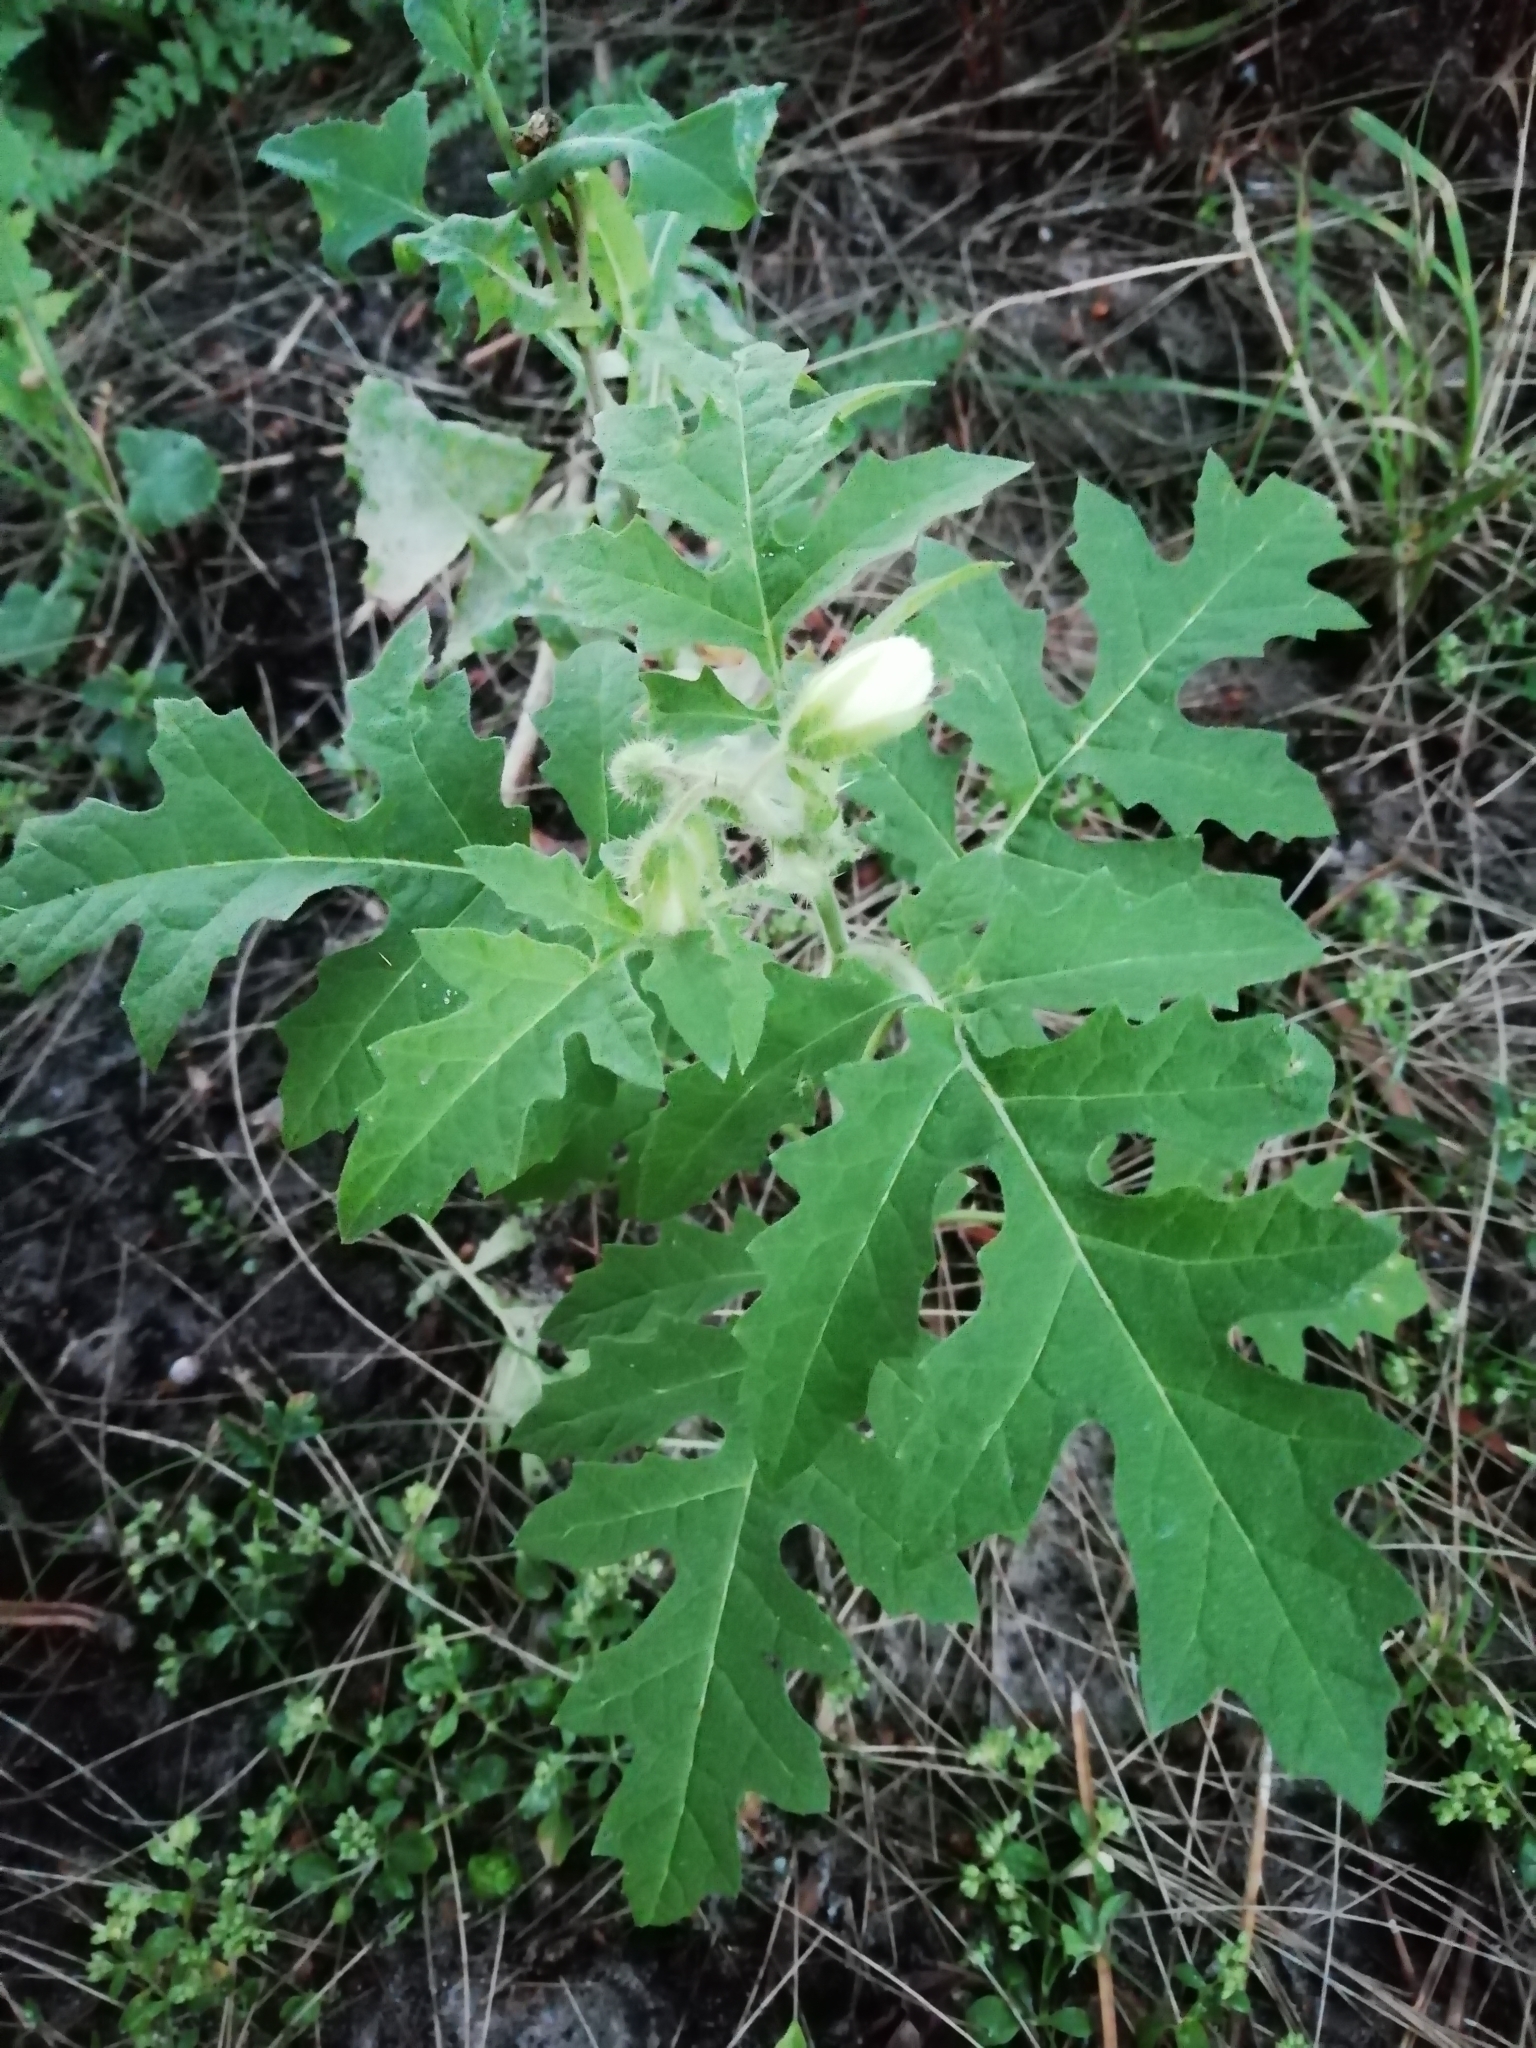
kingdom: Plantae
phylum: Tracheophyta
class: Magnoliopsida
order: Solanales
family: Solanaceae
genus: Solanum
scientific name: Solanum sisymbriifolium
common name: Red buffalo-bur
